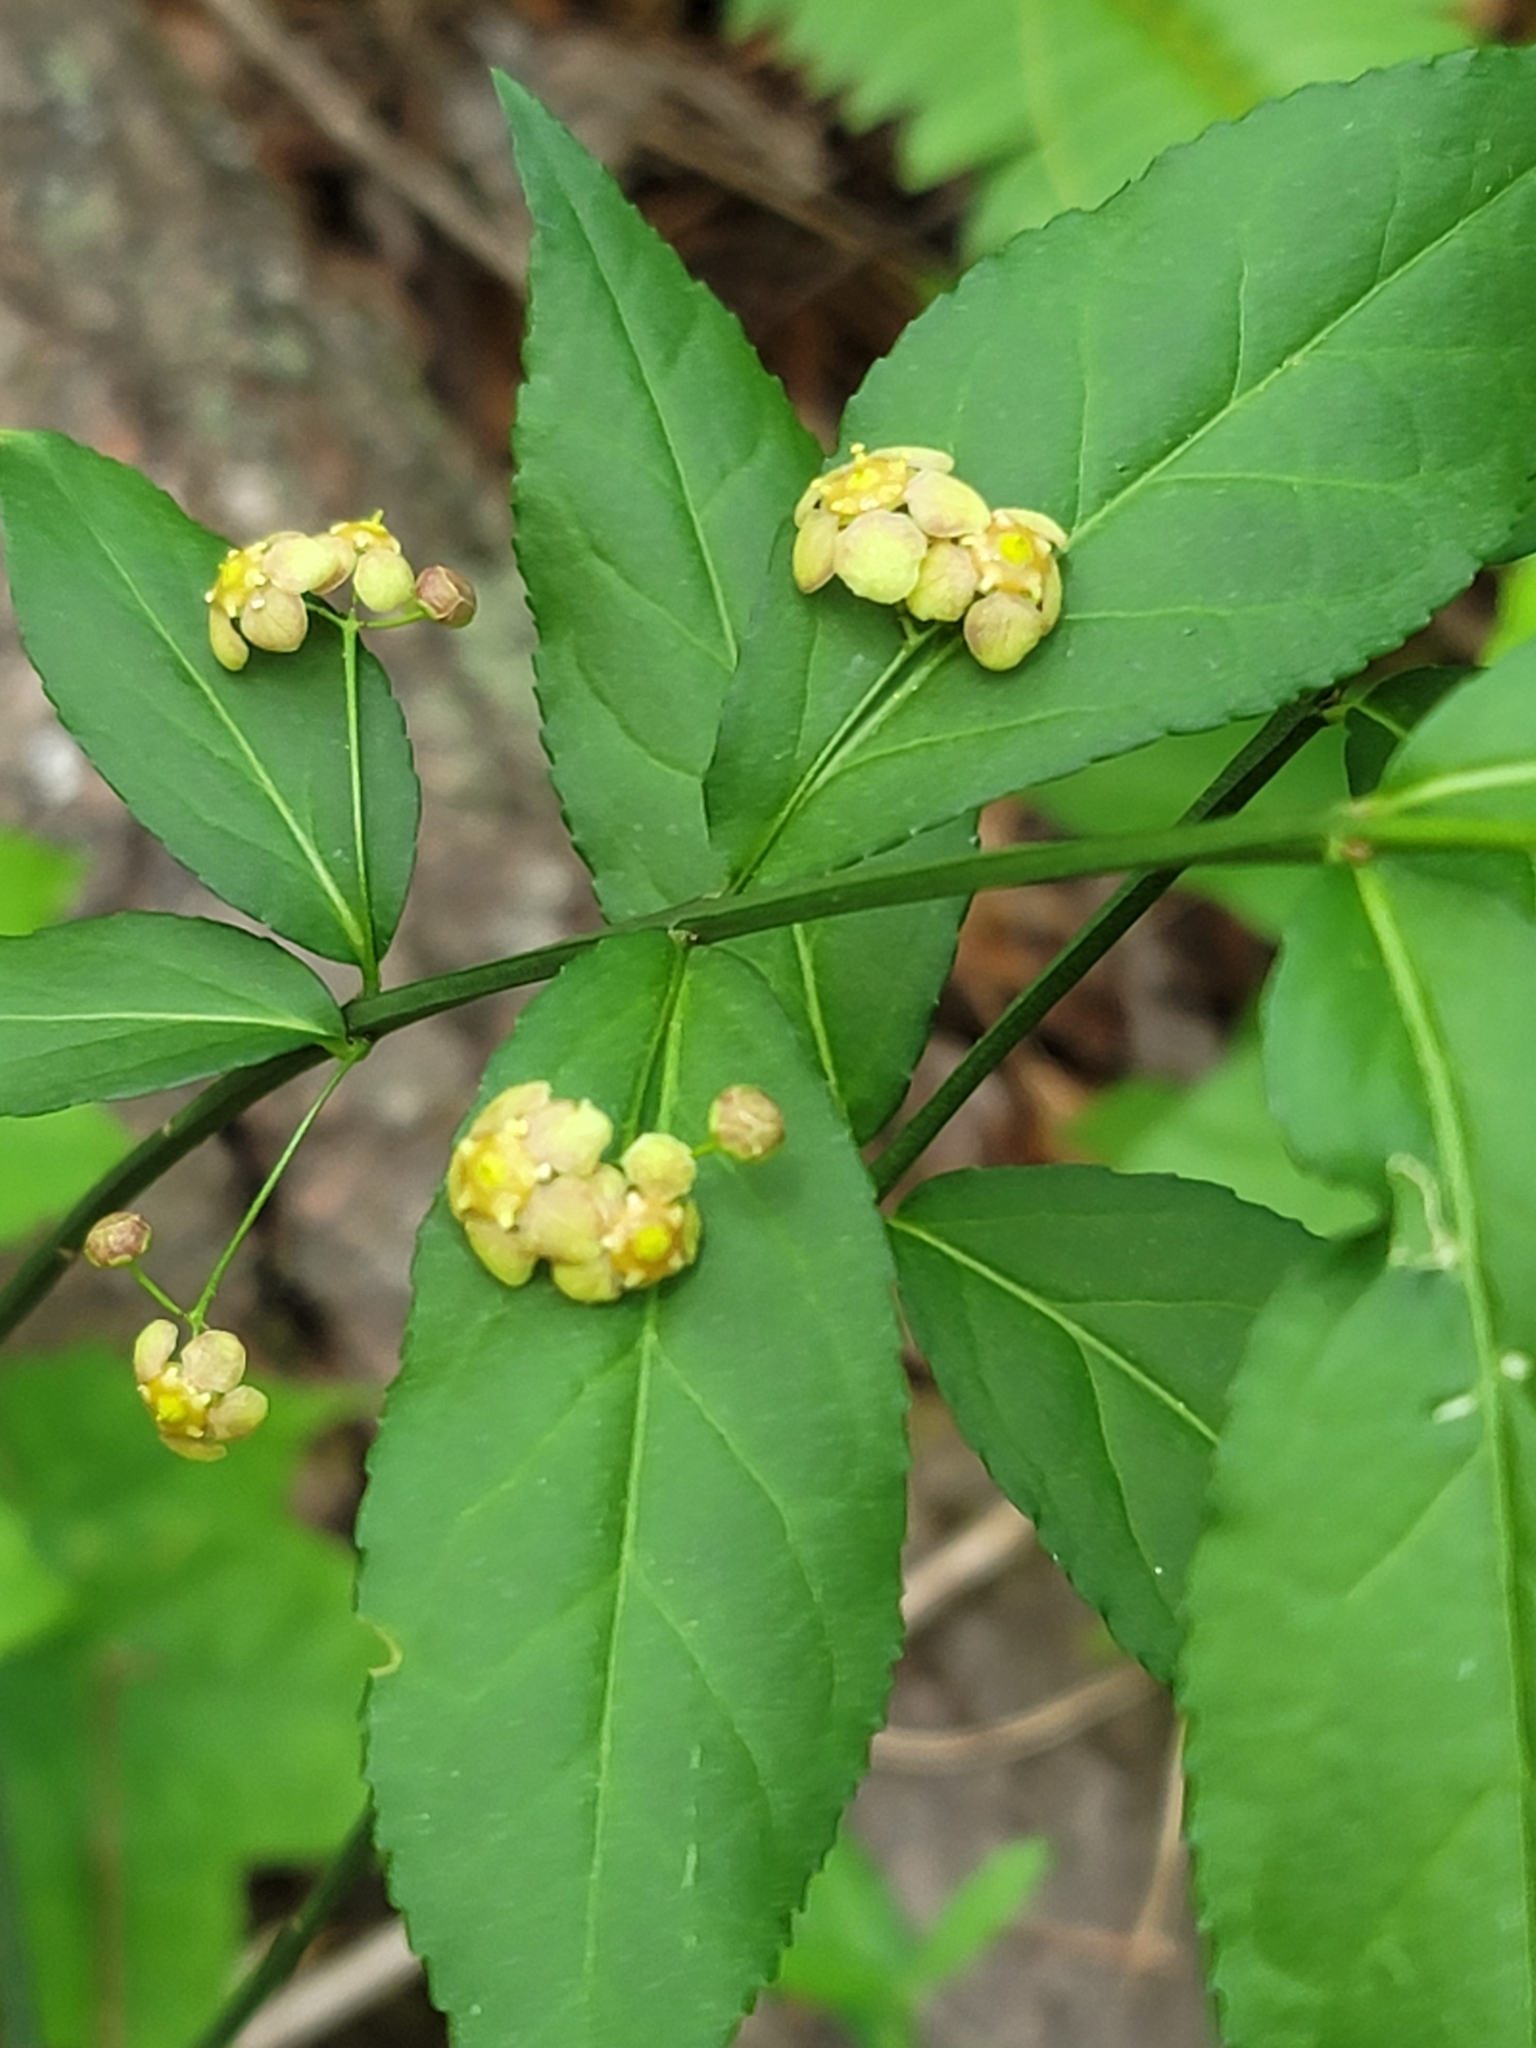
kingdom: Plantae
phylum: Tracheophyta
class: Magnoliopsida
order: Celastrales
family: Celastraceae
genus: Euonymus
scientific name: Euonymus americanus
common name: Bursting-heart
